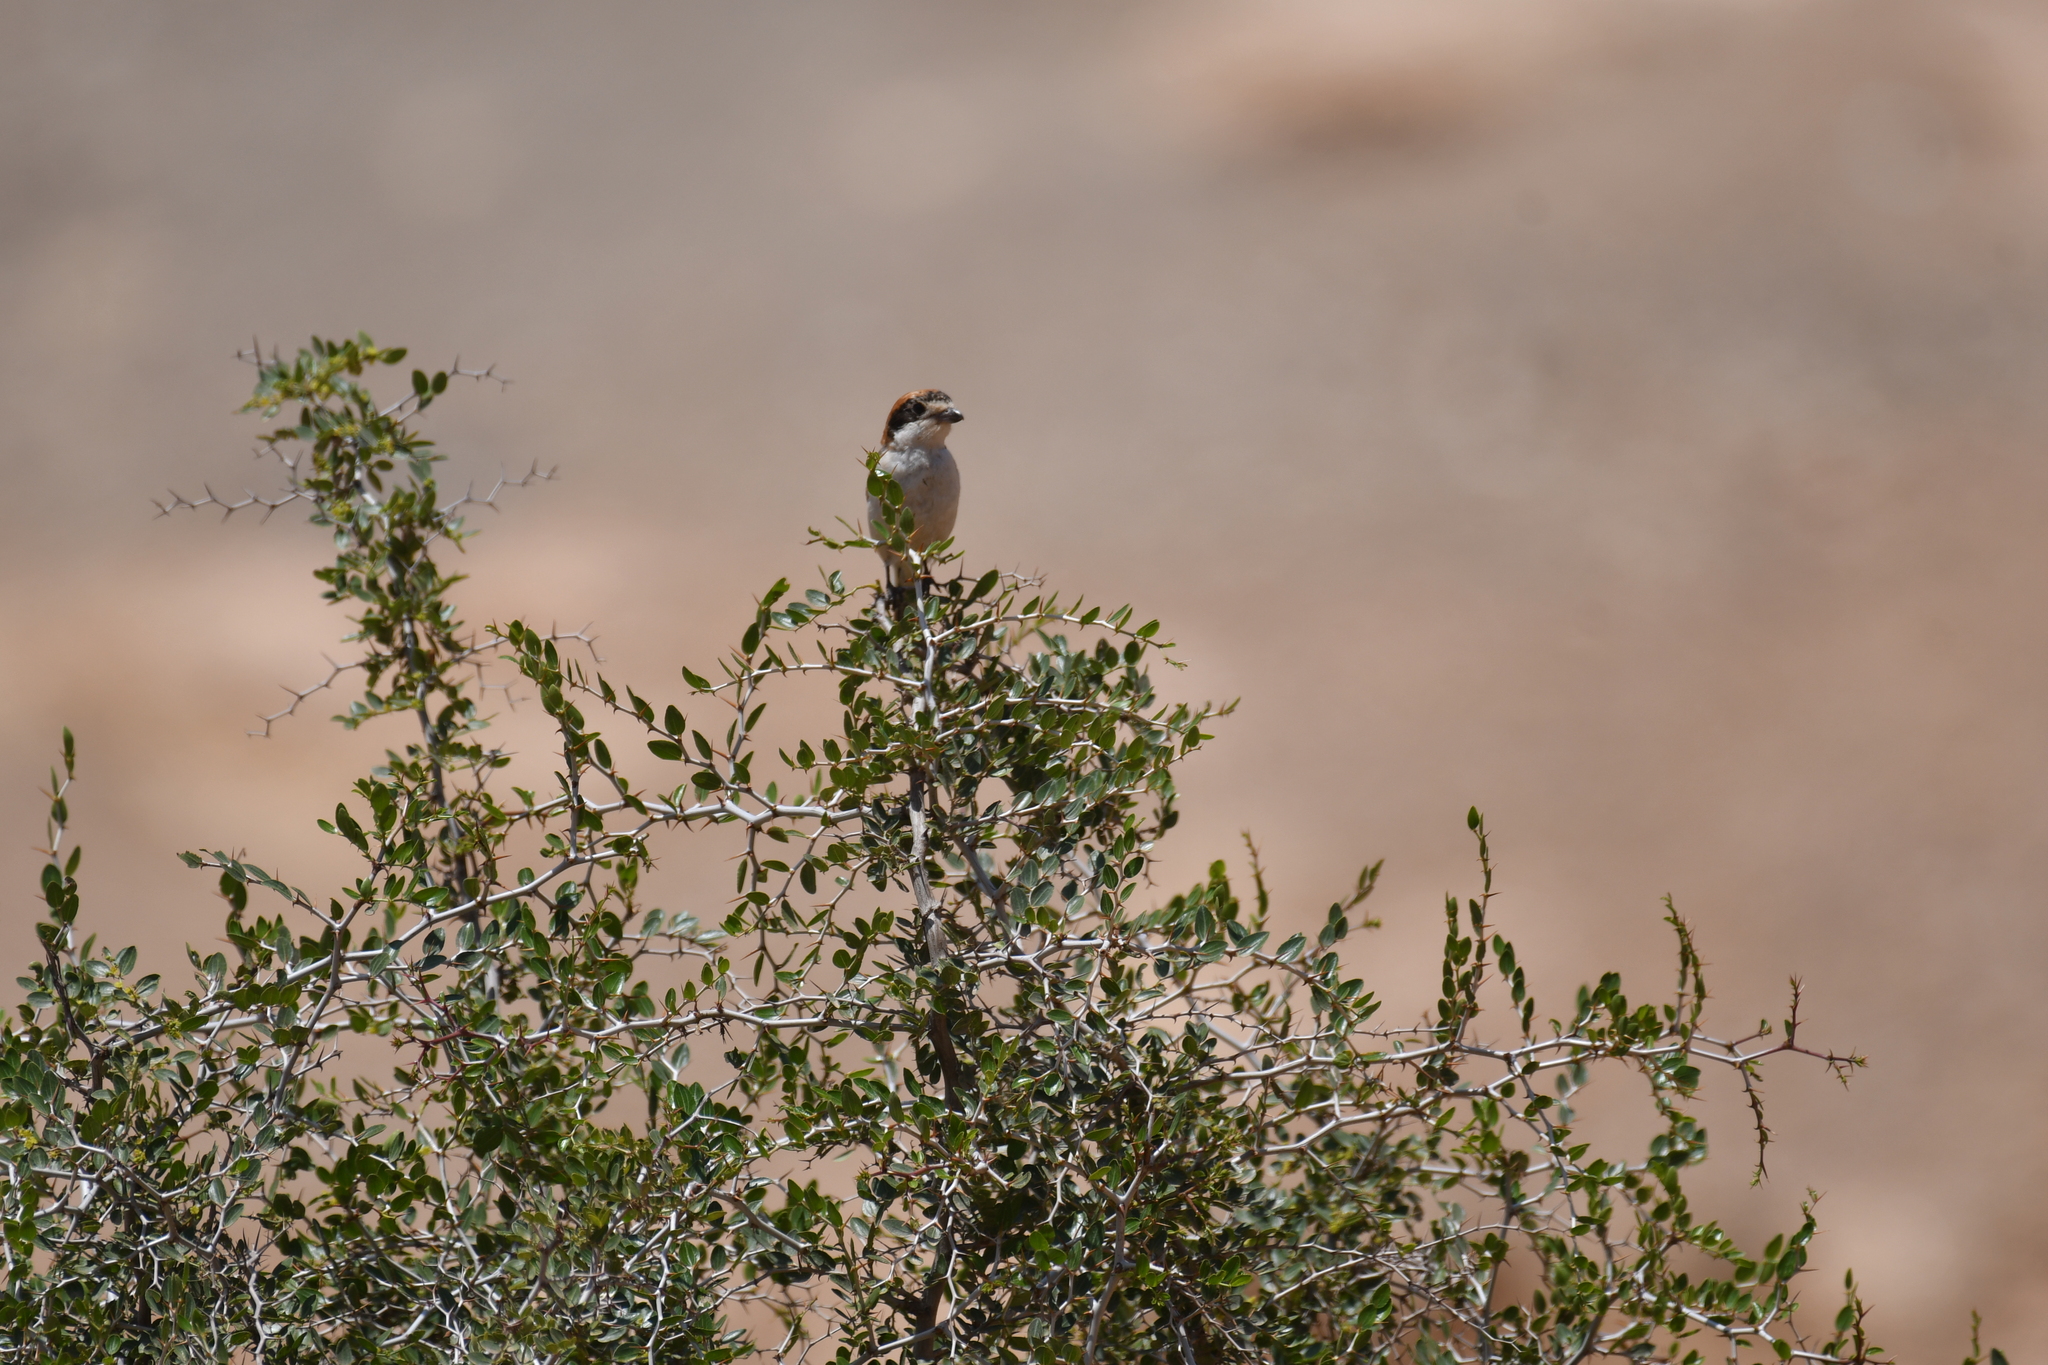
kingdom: Animalia
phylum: Chordata
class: Aves
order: Passeriformes
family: Laniidae
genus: Lanius
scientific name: Lanius senator
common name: Woodchat shrike
